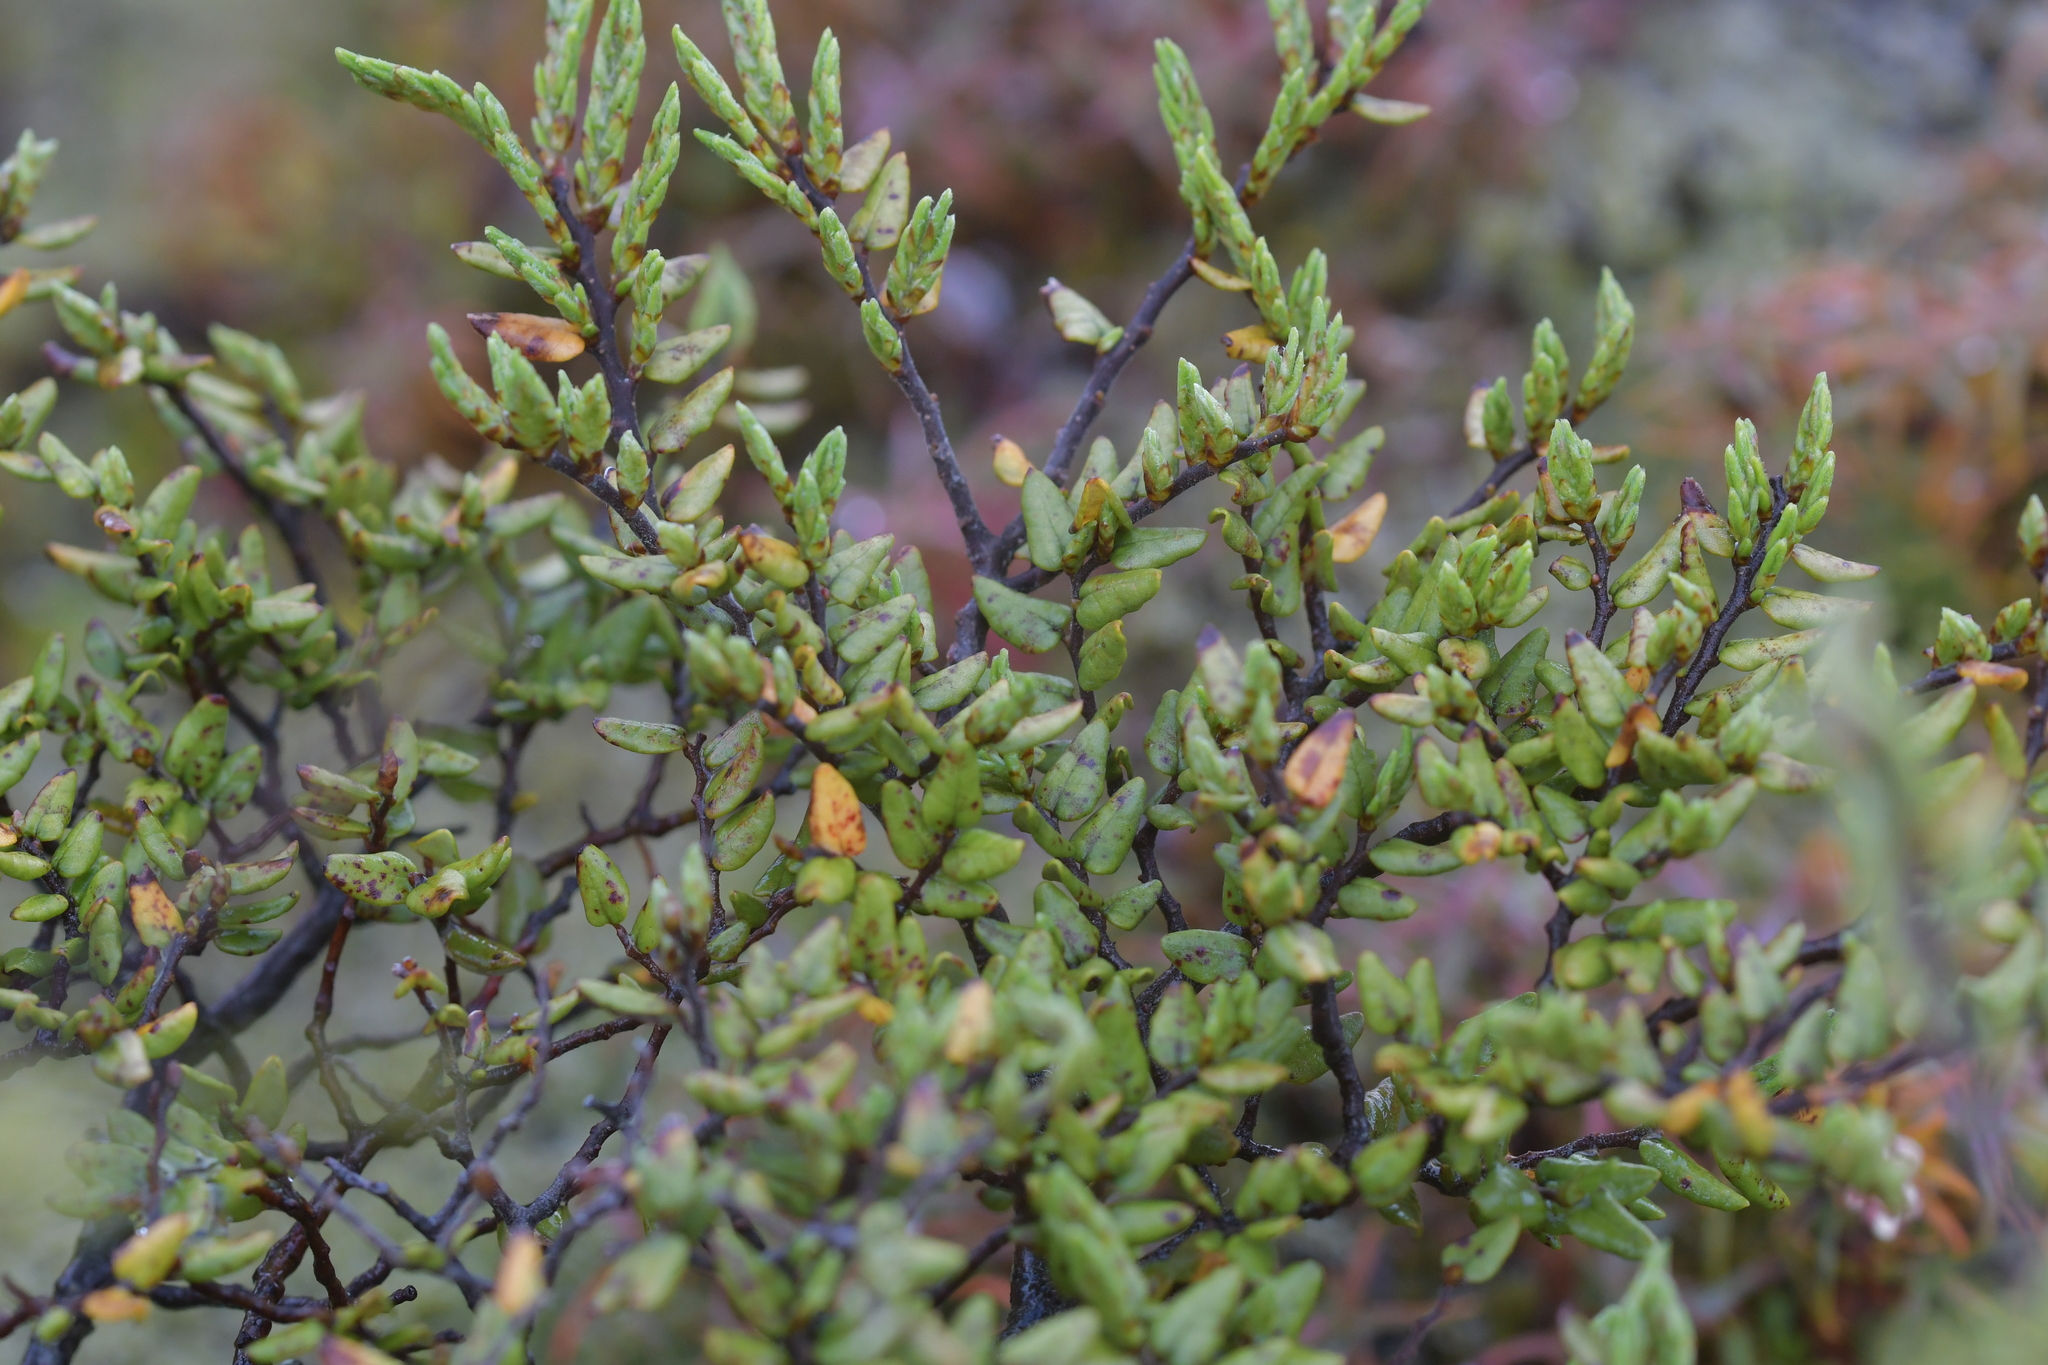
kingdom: Plantae
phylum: Tracheophyta
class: Magnoliopsida
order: Fagales
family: Nothofagaceae
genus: Nothofagus
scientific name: Nothofagus cliffortioides
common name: Mountain beech
